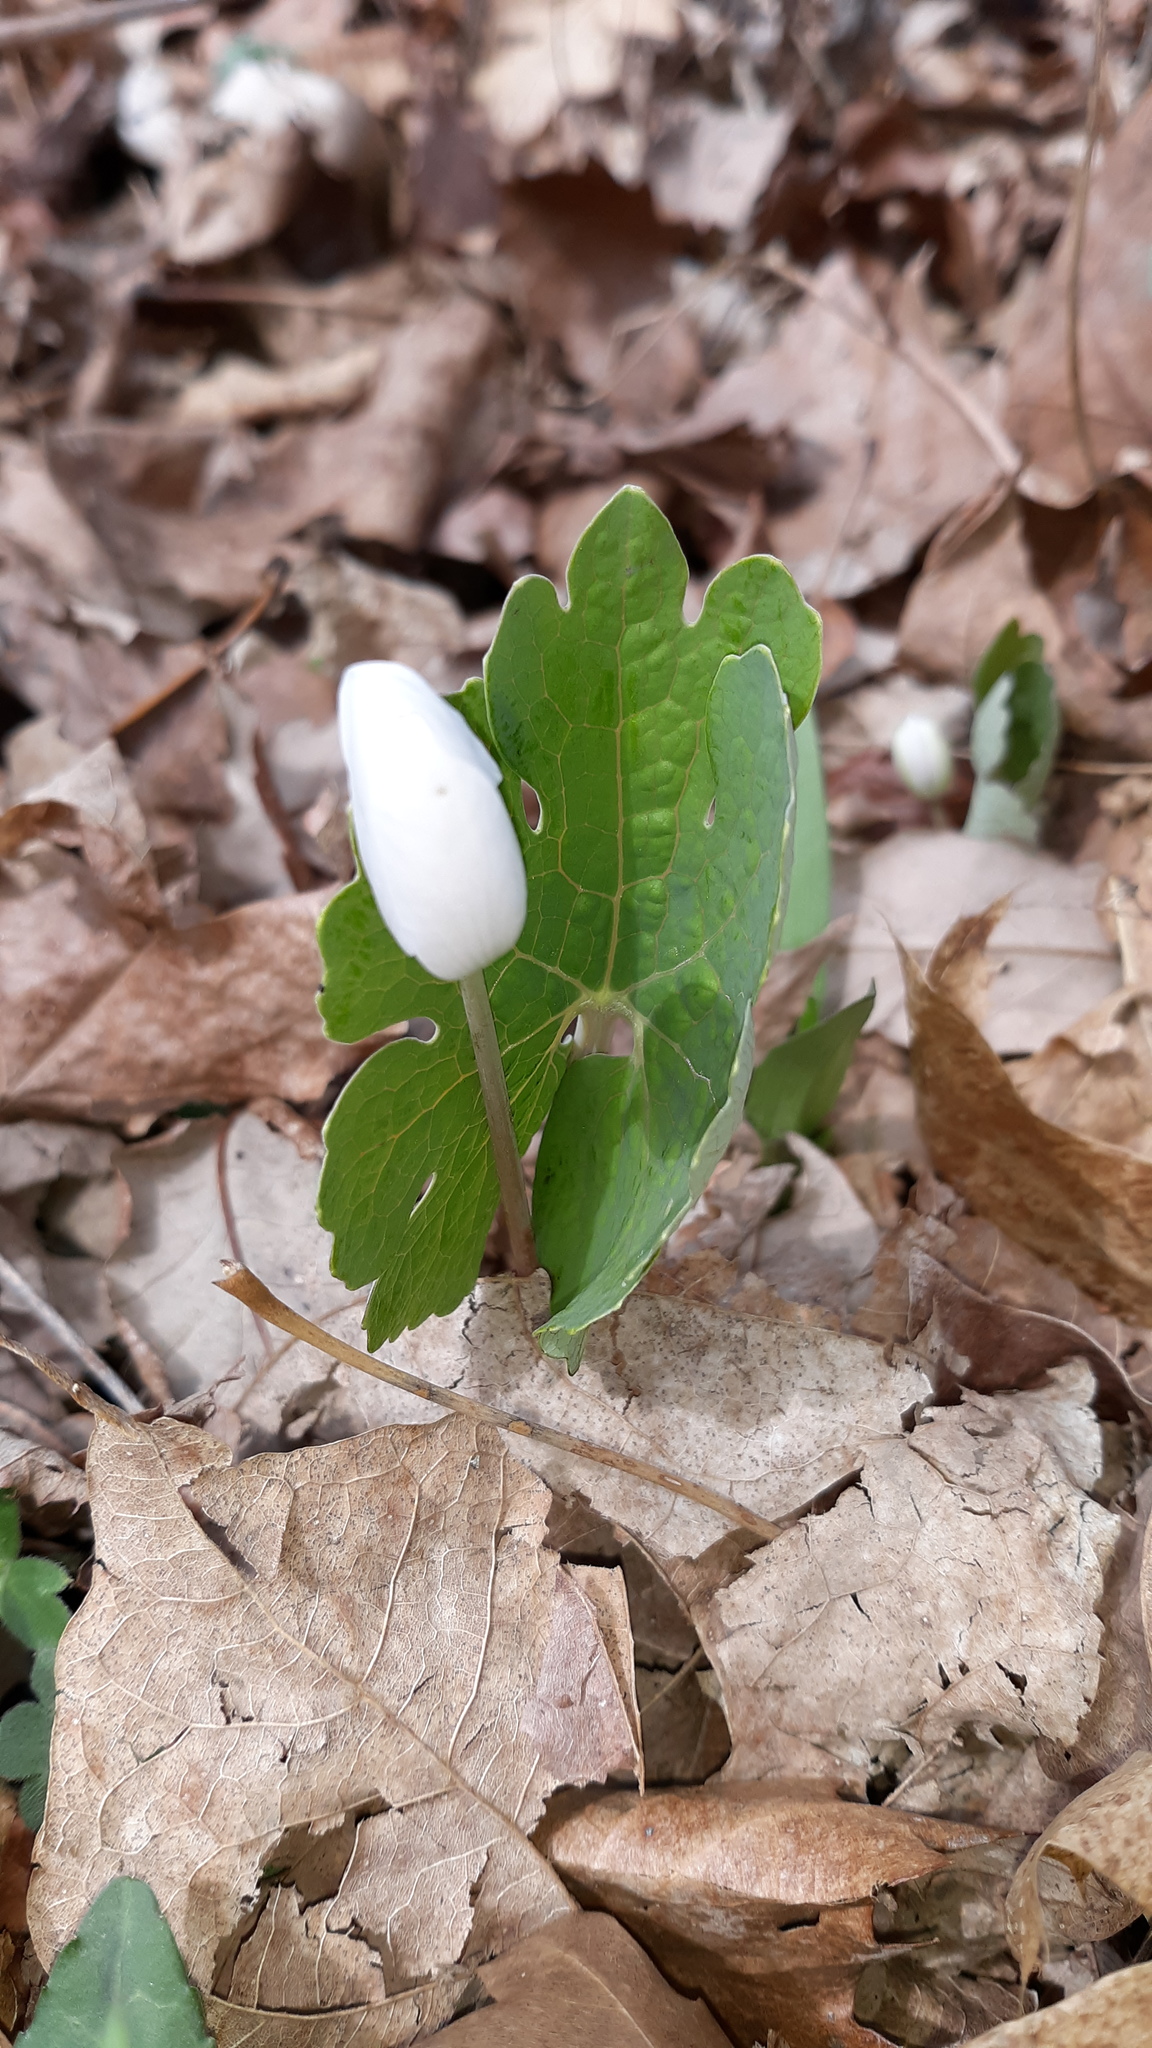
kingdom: Plantae
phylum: Tracheophyta
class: Magnoliopsida
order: Ranunculales
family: Papaveraceae
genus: Sanguinaria
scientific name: Sanguinaria canadensis
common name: Bloodroot
